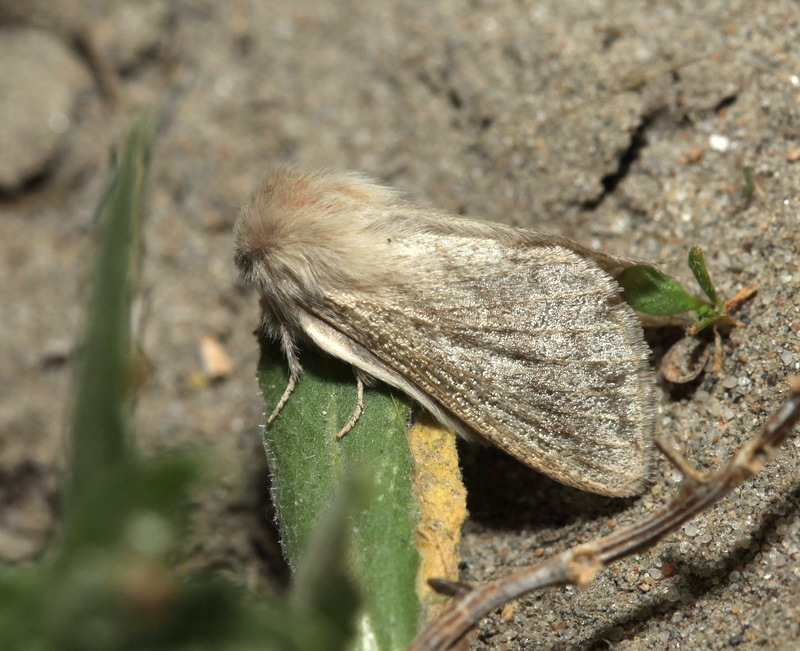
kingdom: Animalia
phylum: Arthropoda
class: Insecta
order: Lepidoptera
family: Lasiocampidae
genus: Chilena
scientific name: Chilena sordida
